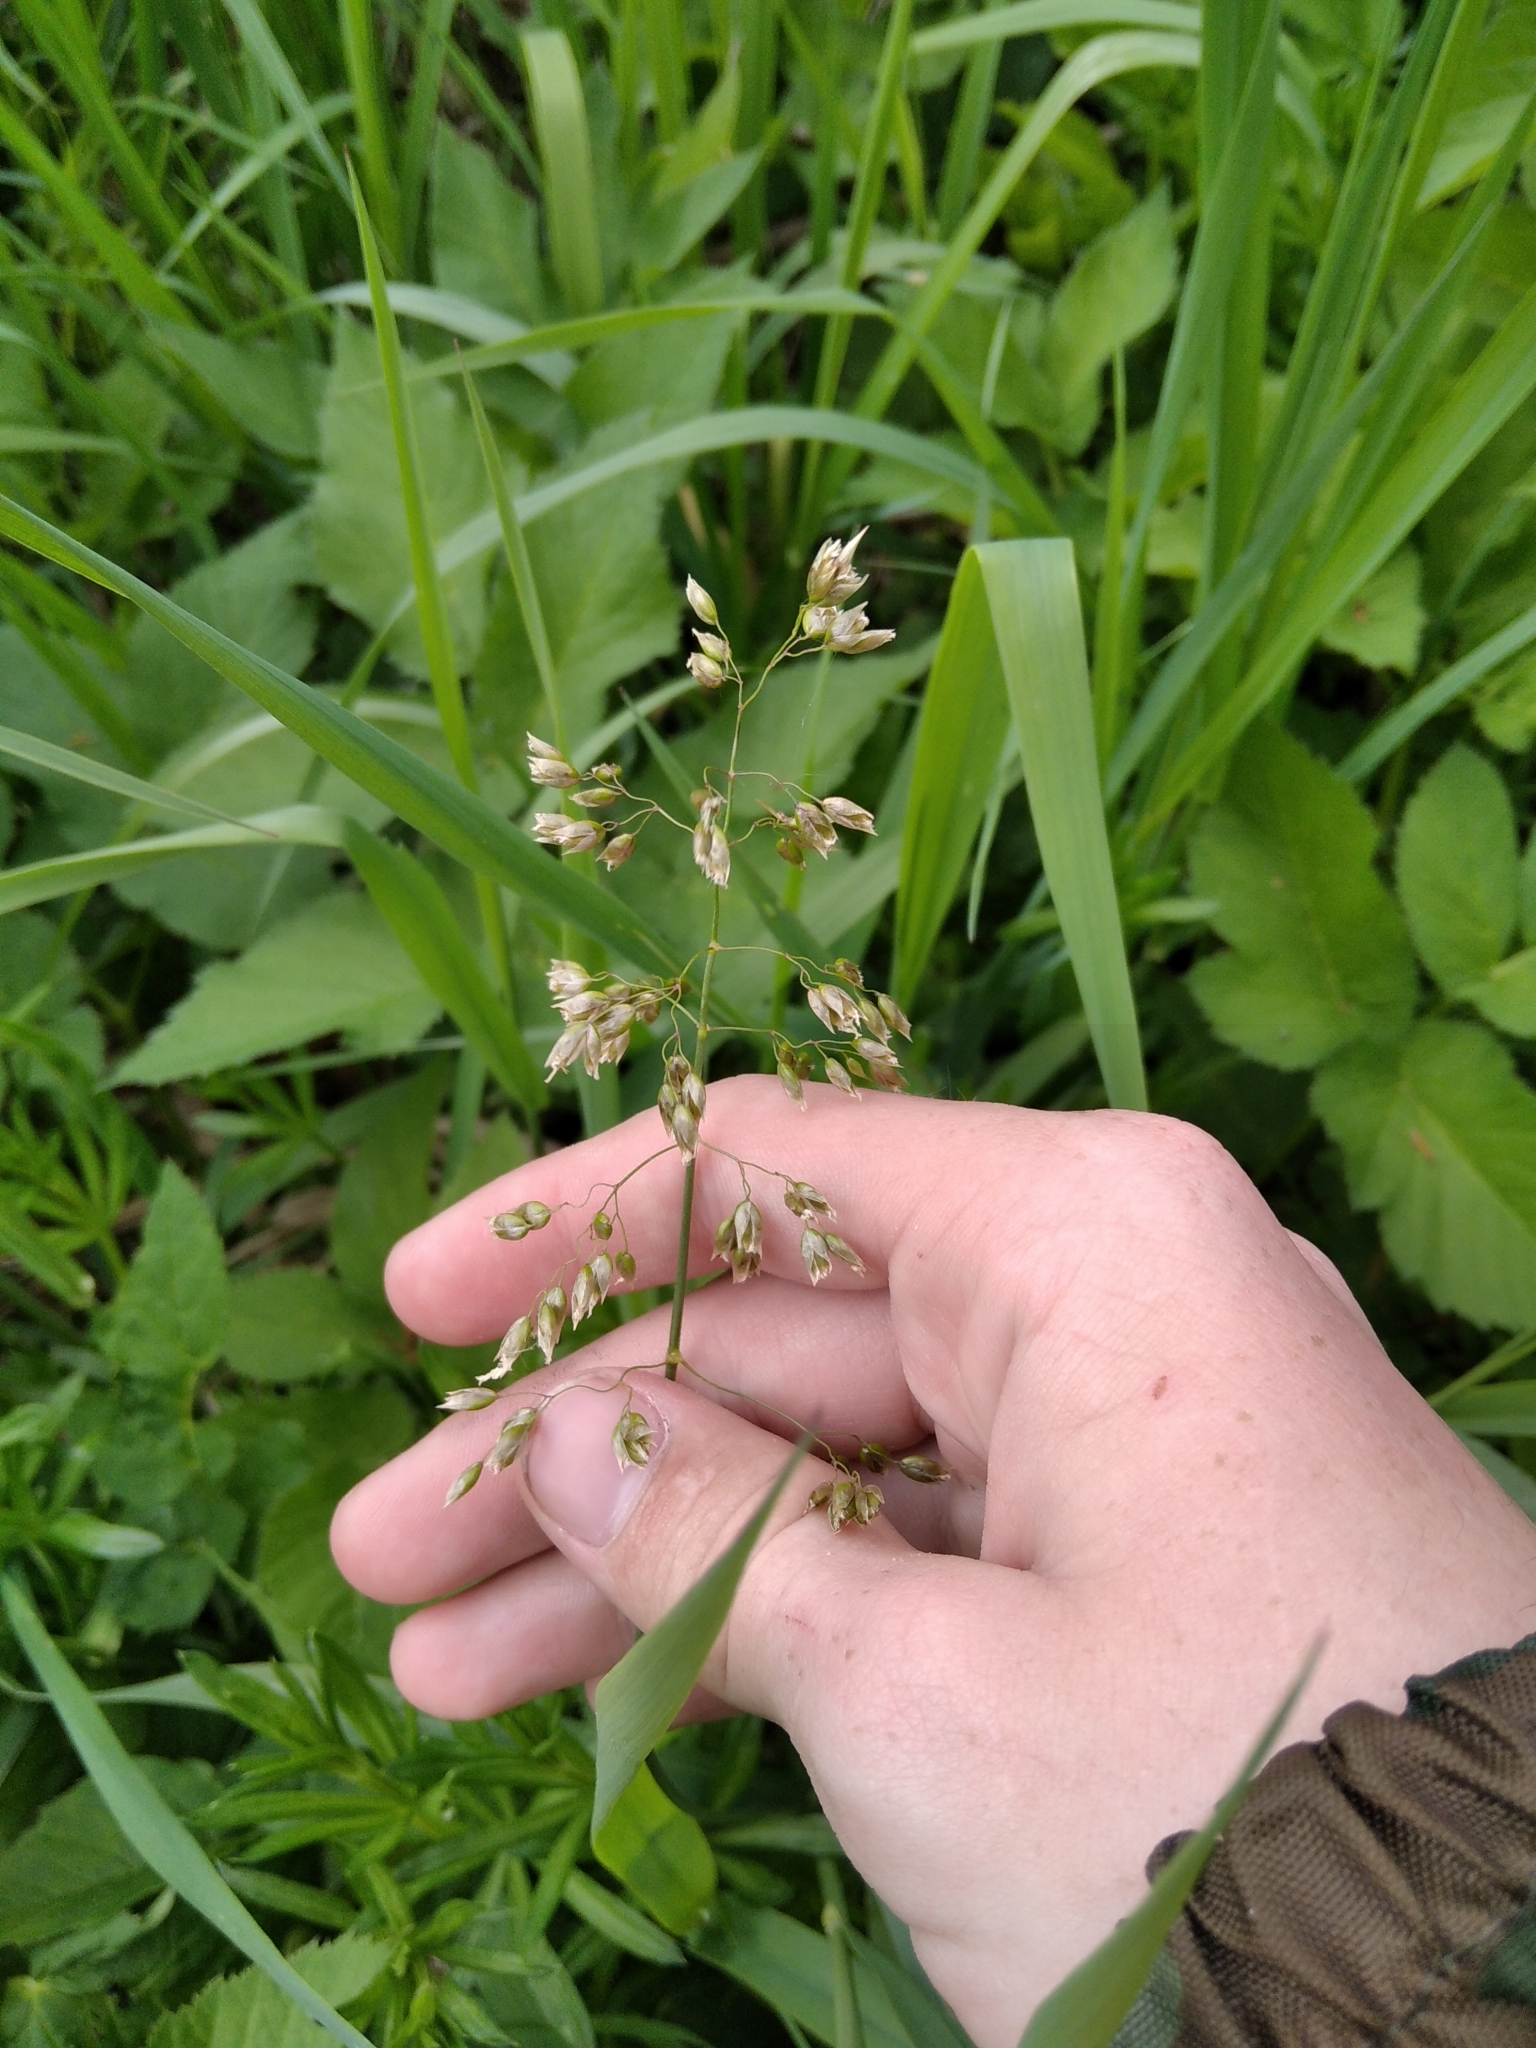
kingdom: Plantae
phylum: Tracheophyta
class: Liliopsida
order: Poales
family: Poaceae
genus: Anthoxanthum
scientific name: Anthoxanthum nitens
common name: Holy grass
